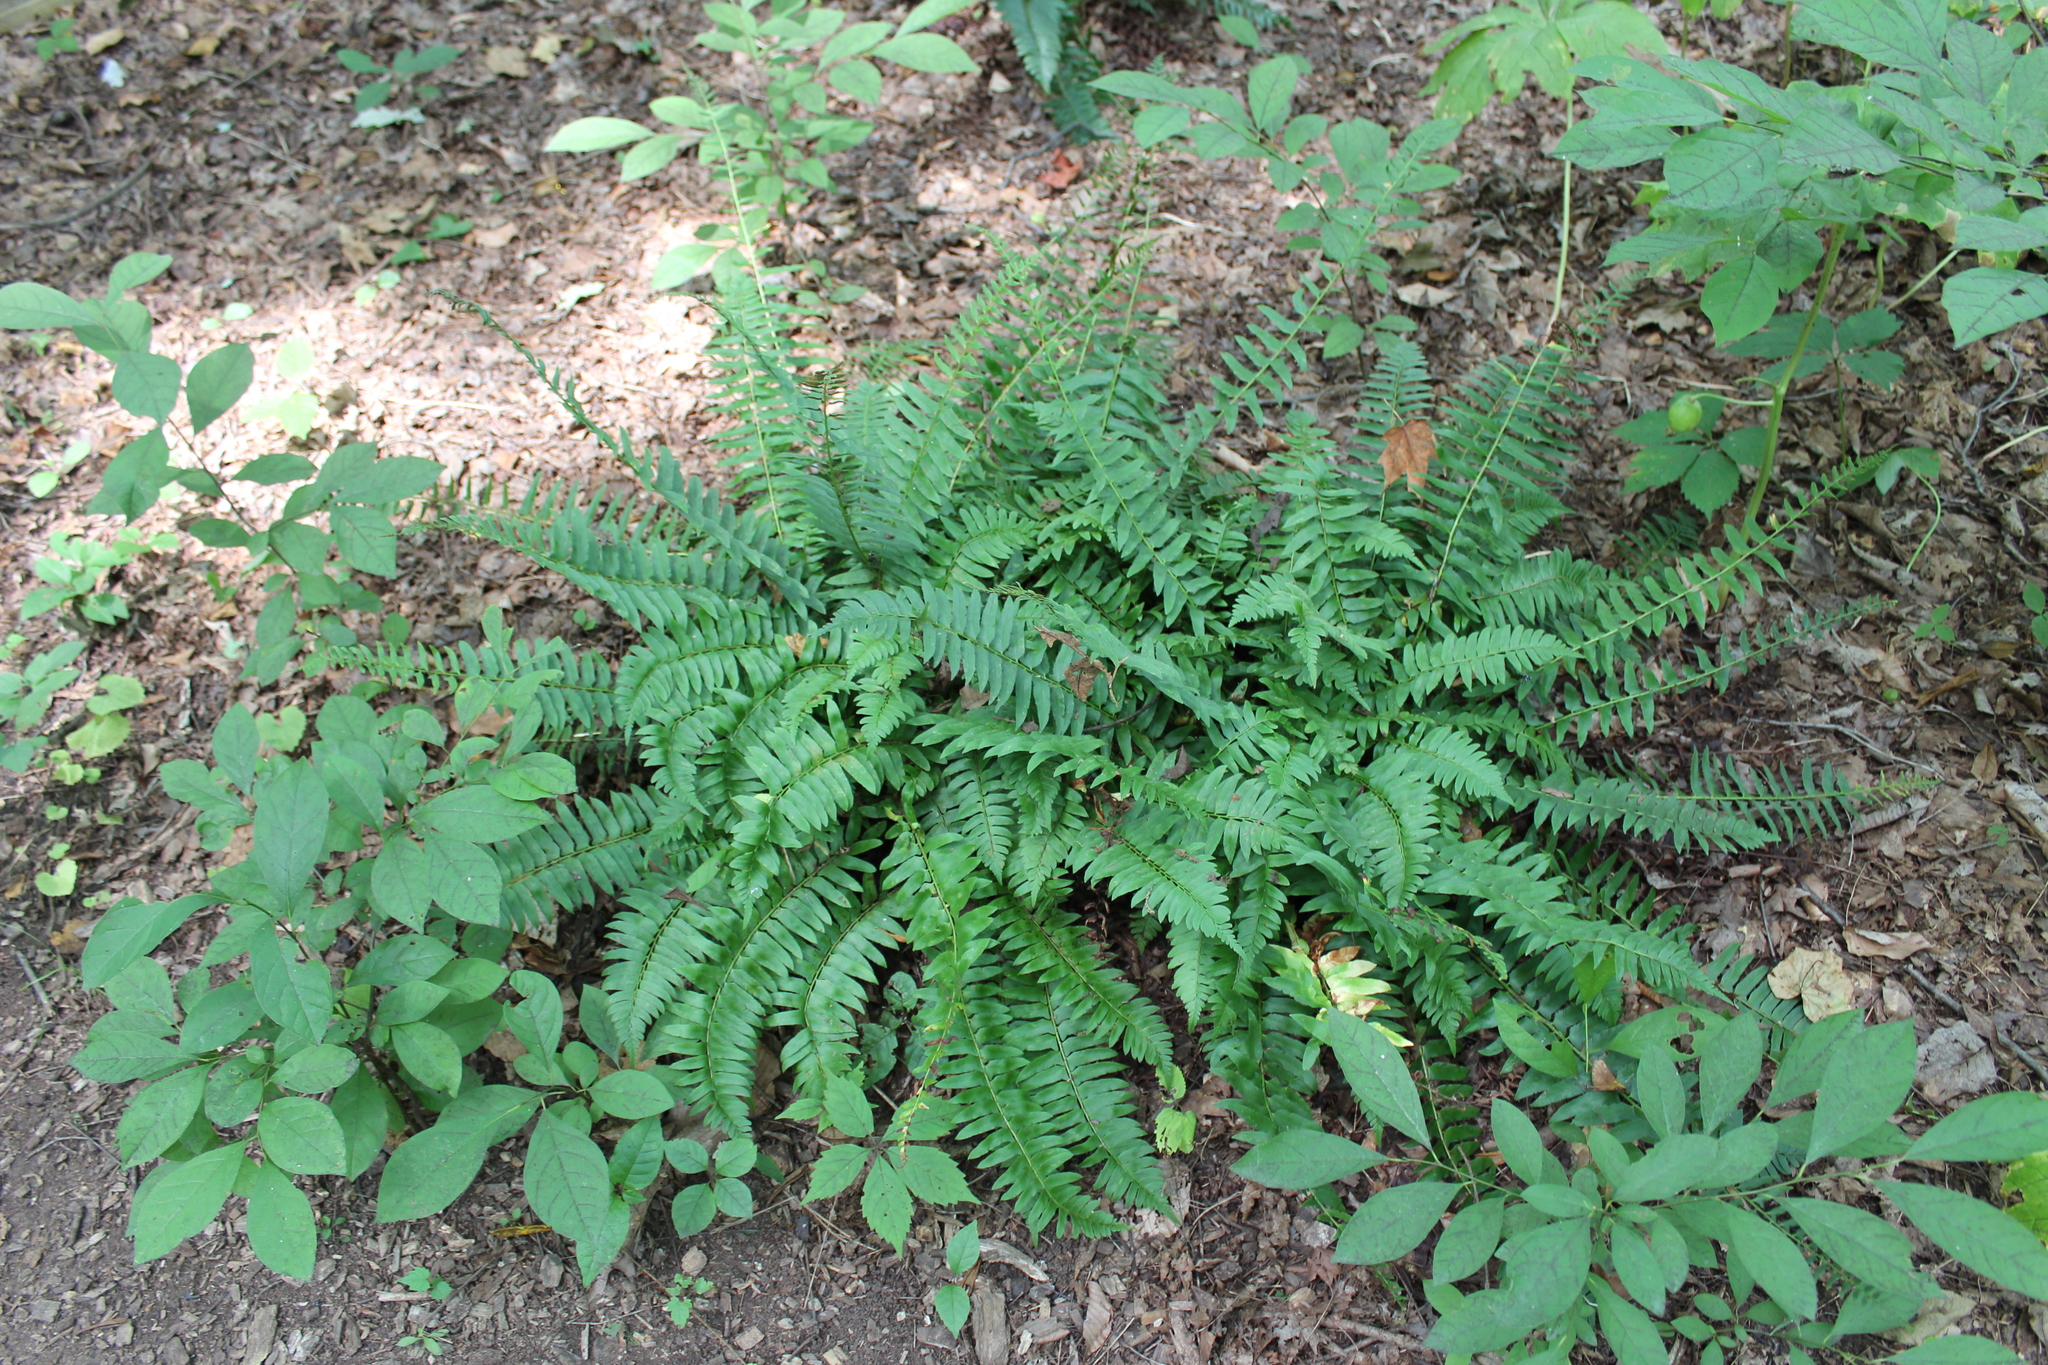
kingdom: Plantae
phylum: Tracheophyta
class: Polypodiopsida
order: Polypodiales
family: Dryopteridaceae
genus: Polystichum
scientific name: Polystichum acrostichoides
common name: Christmas fern
